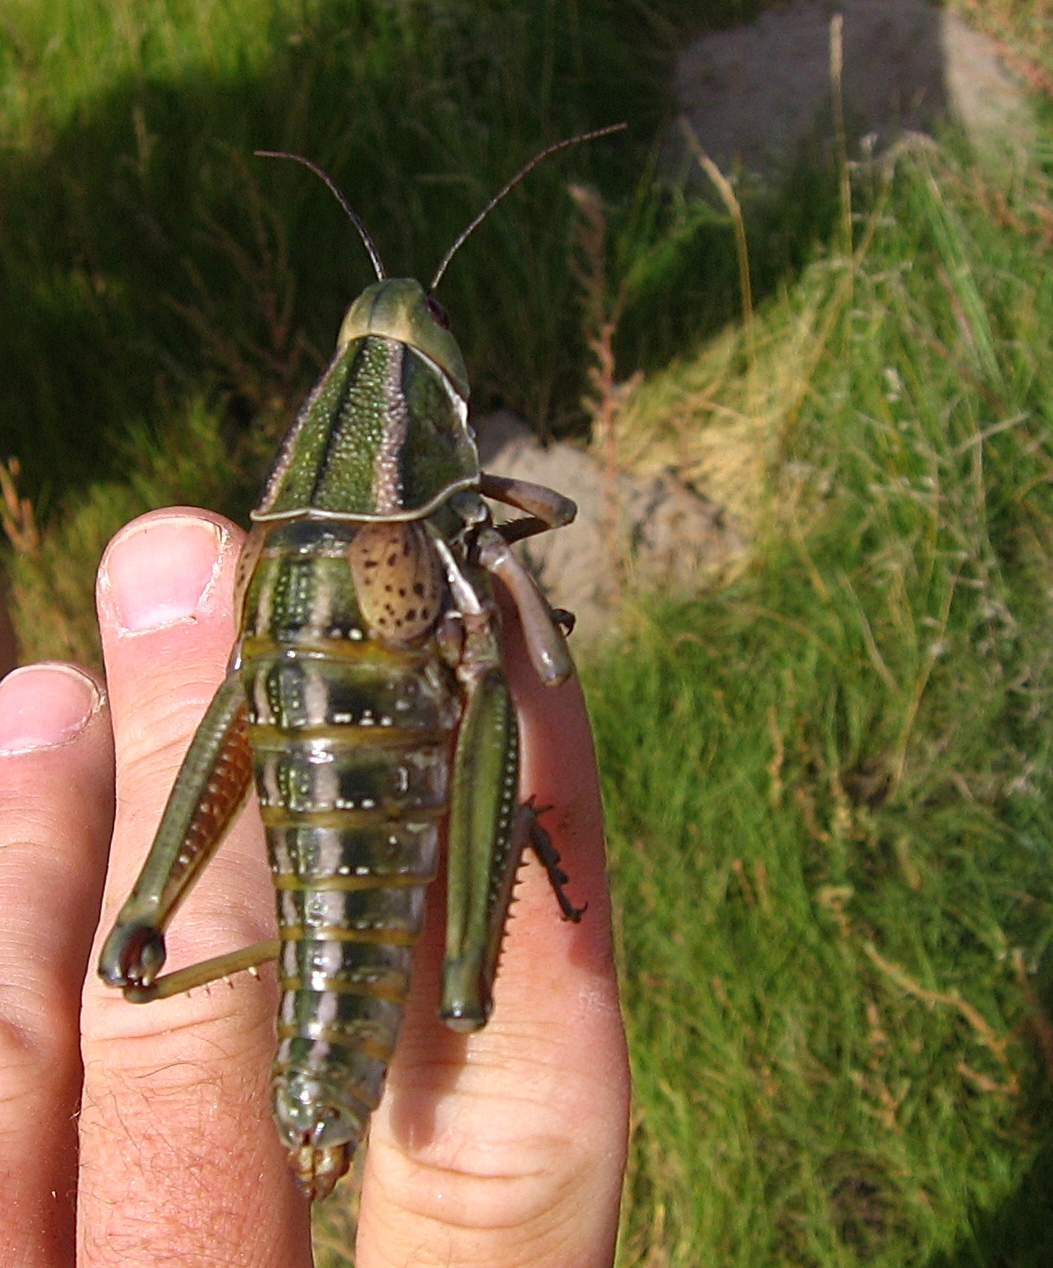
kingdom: Animalia
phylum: Arthropoda
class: Insecta
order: Orthoptera
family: Romaleidae
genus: Brachystola
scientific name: Brachystola magna
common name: Plains lubber grasshopper
